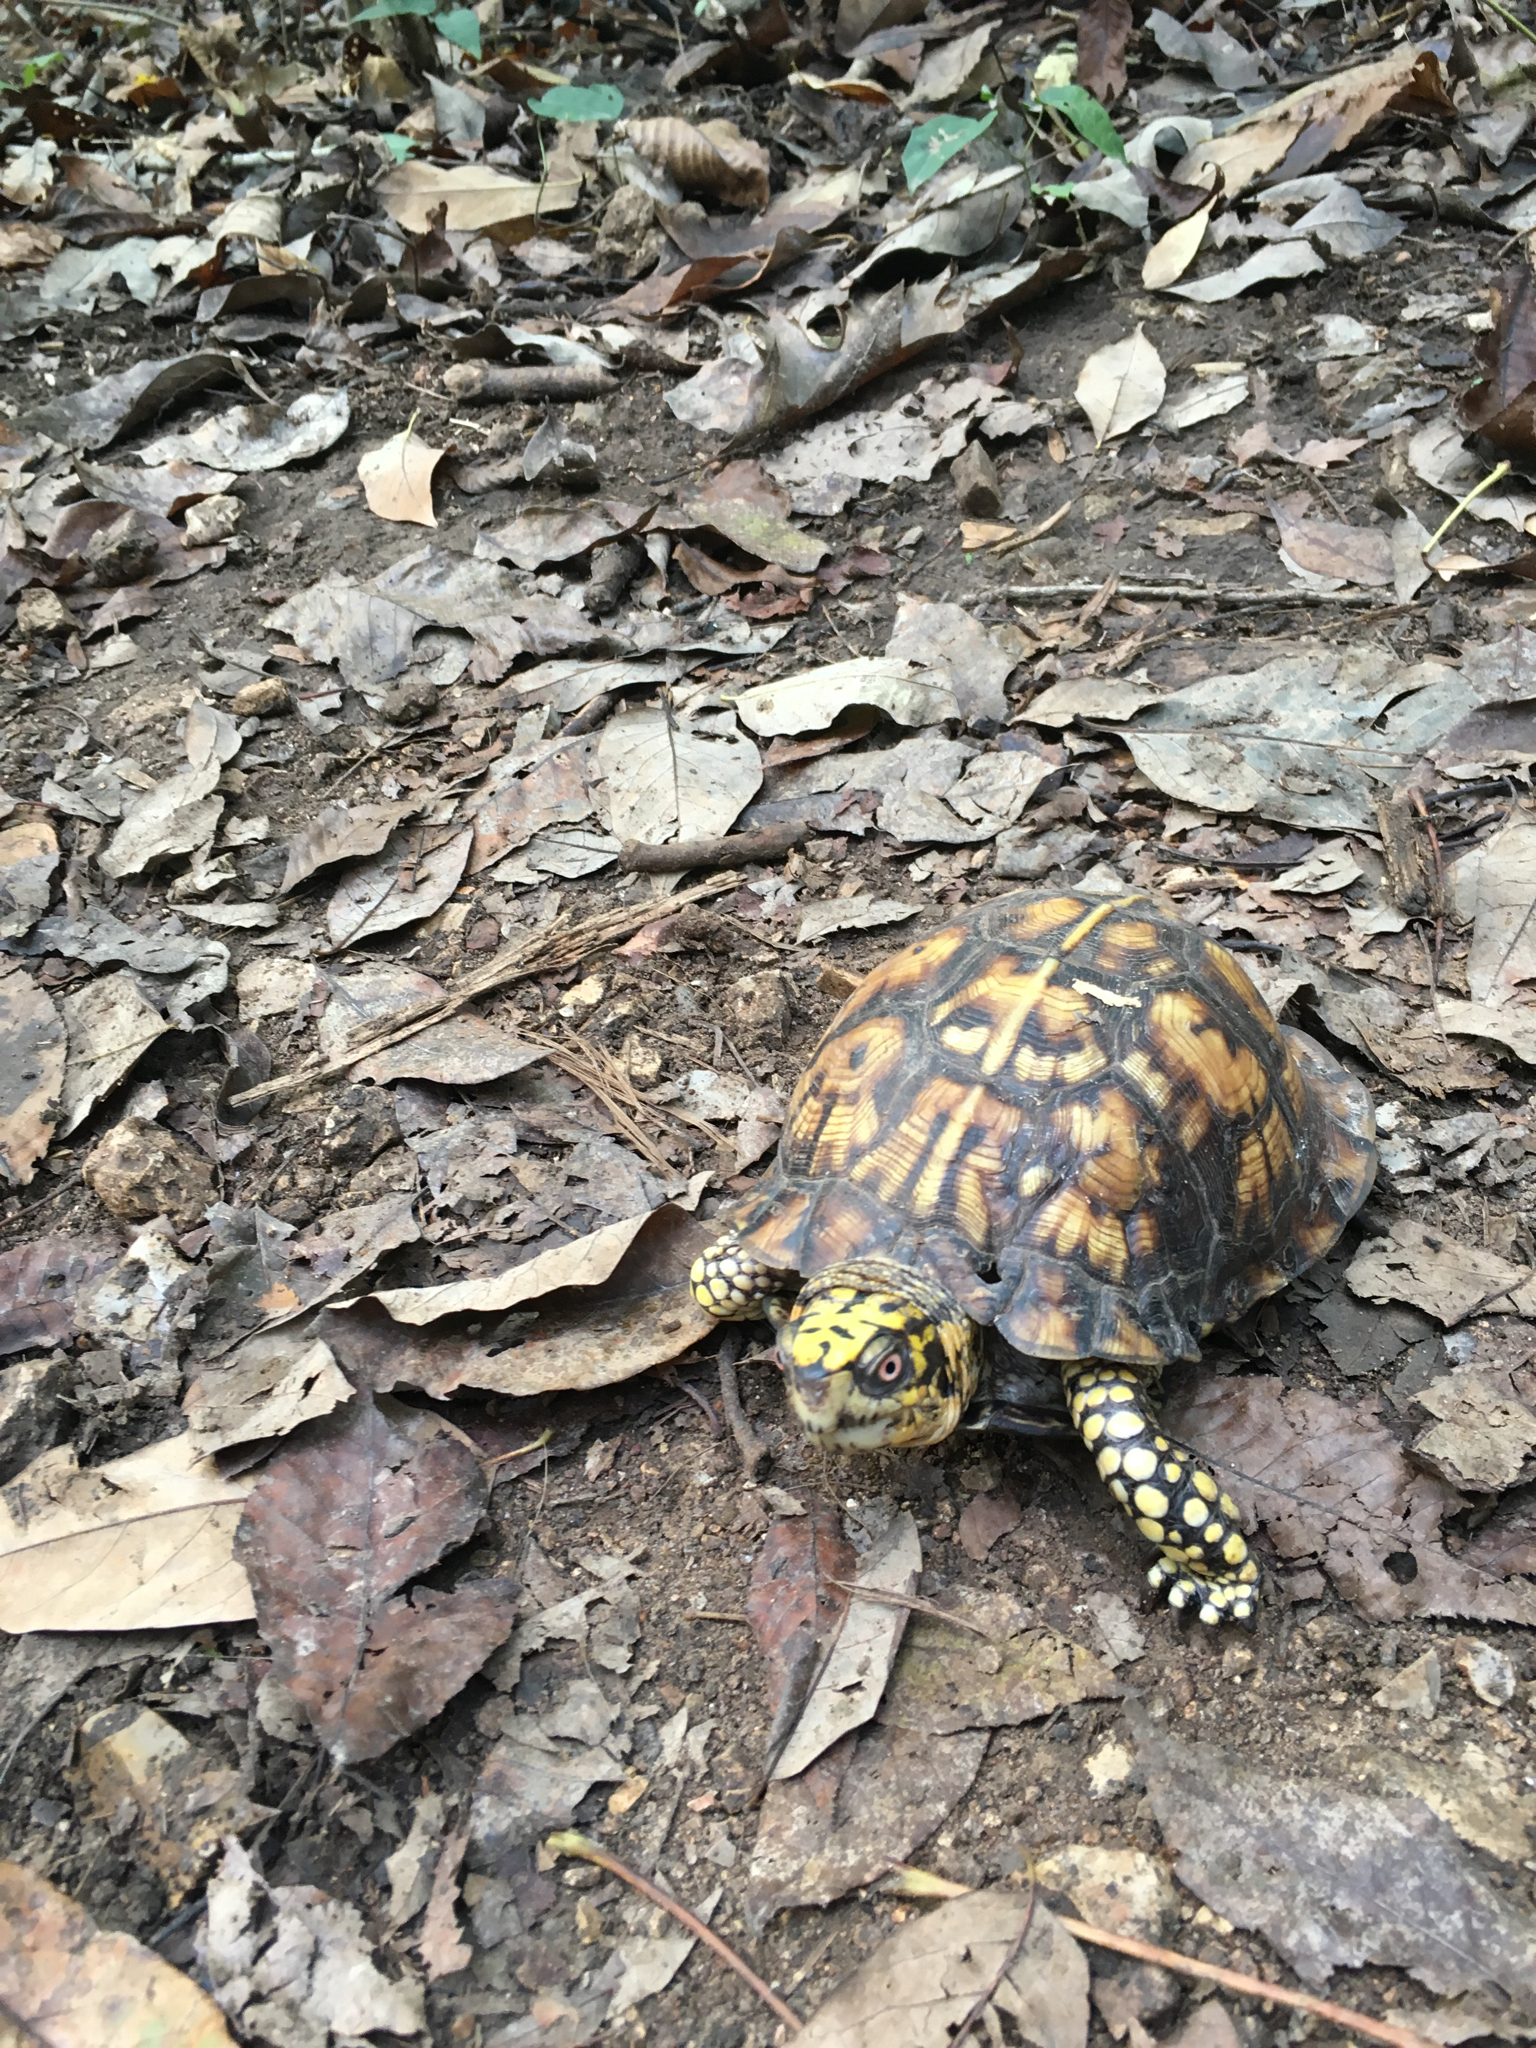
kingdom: Animalia
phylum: Chordata
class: Testudines
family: Emydidae
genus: Terrapene
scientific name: Terrapene carolina
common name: Common box turtle
